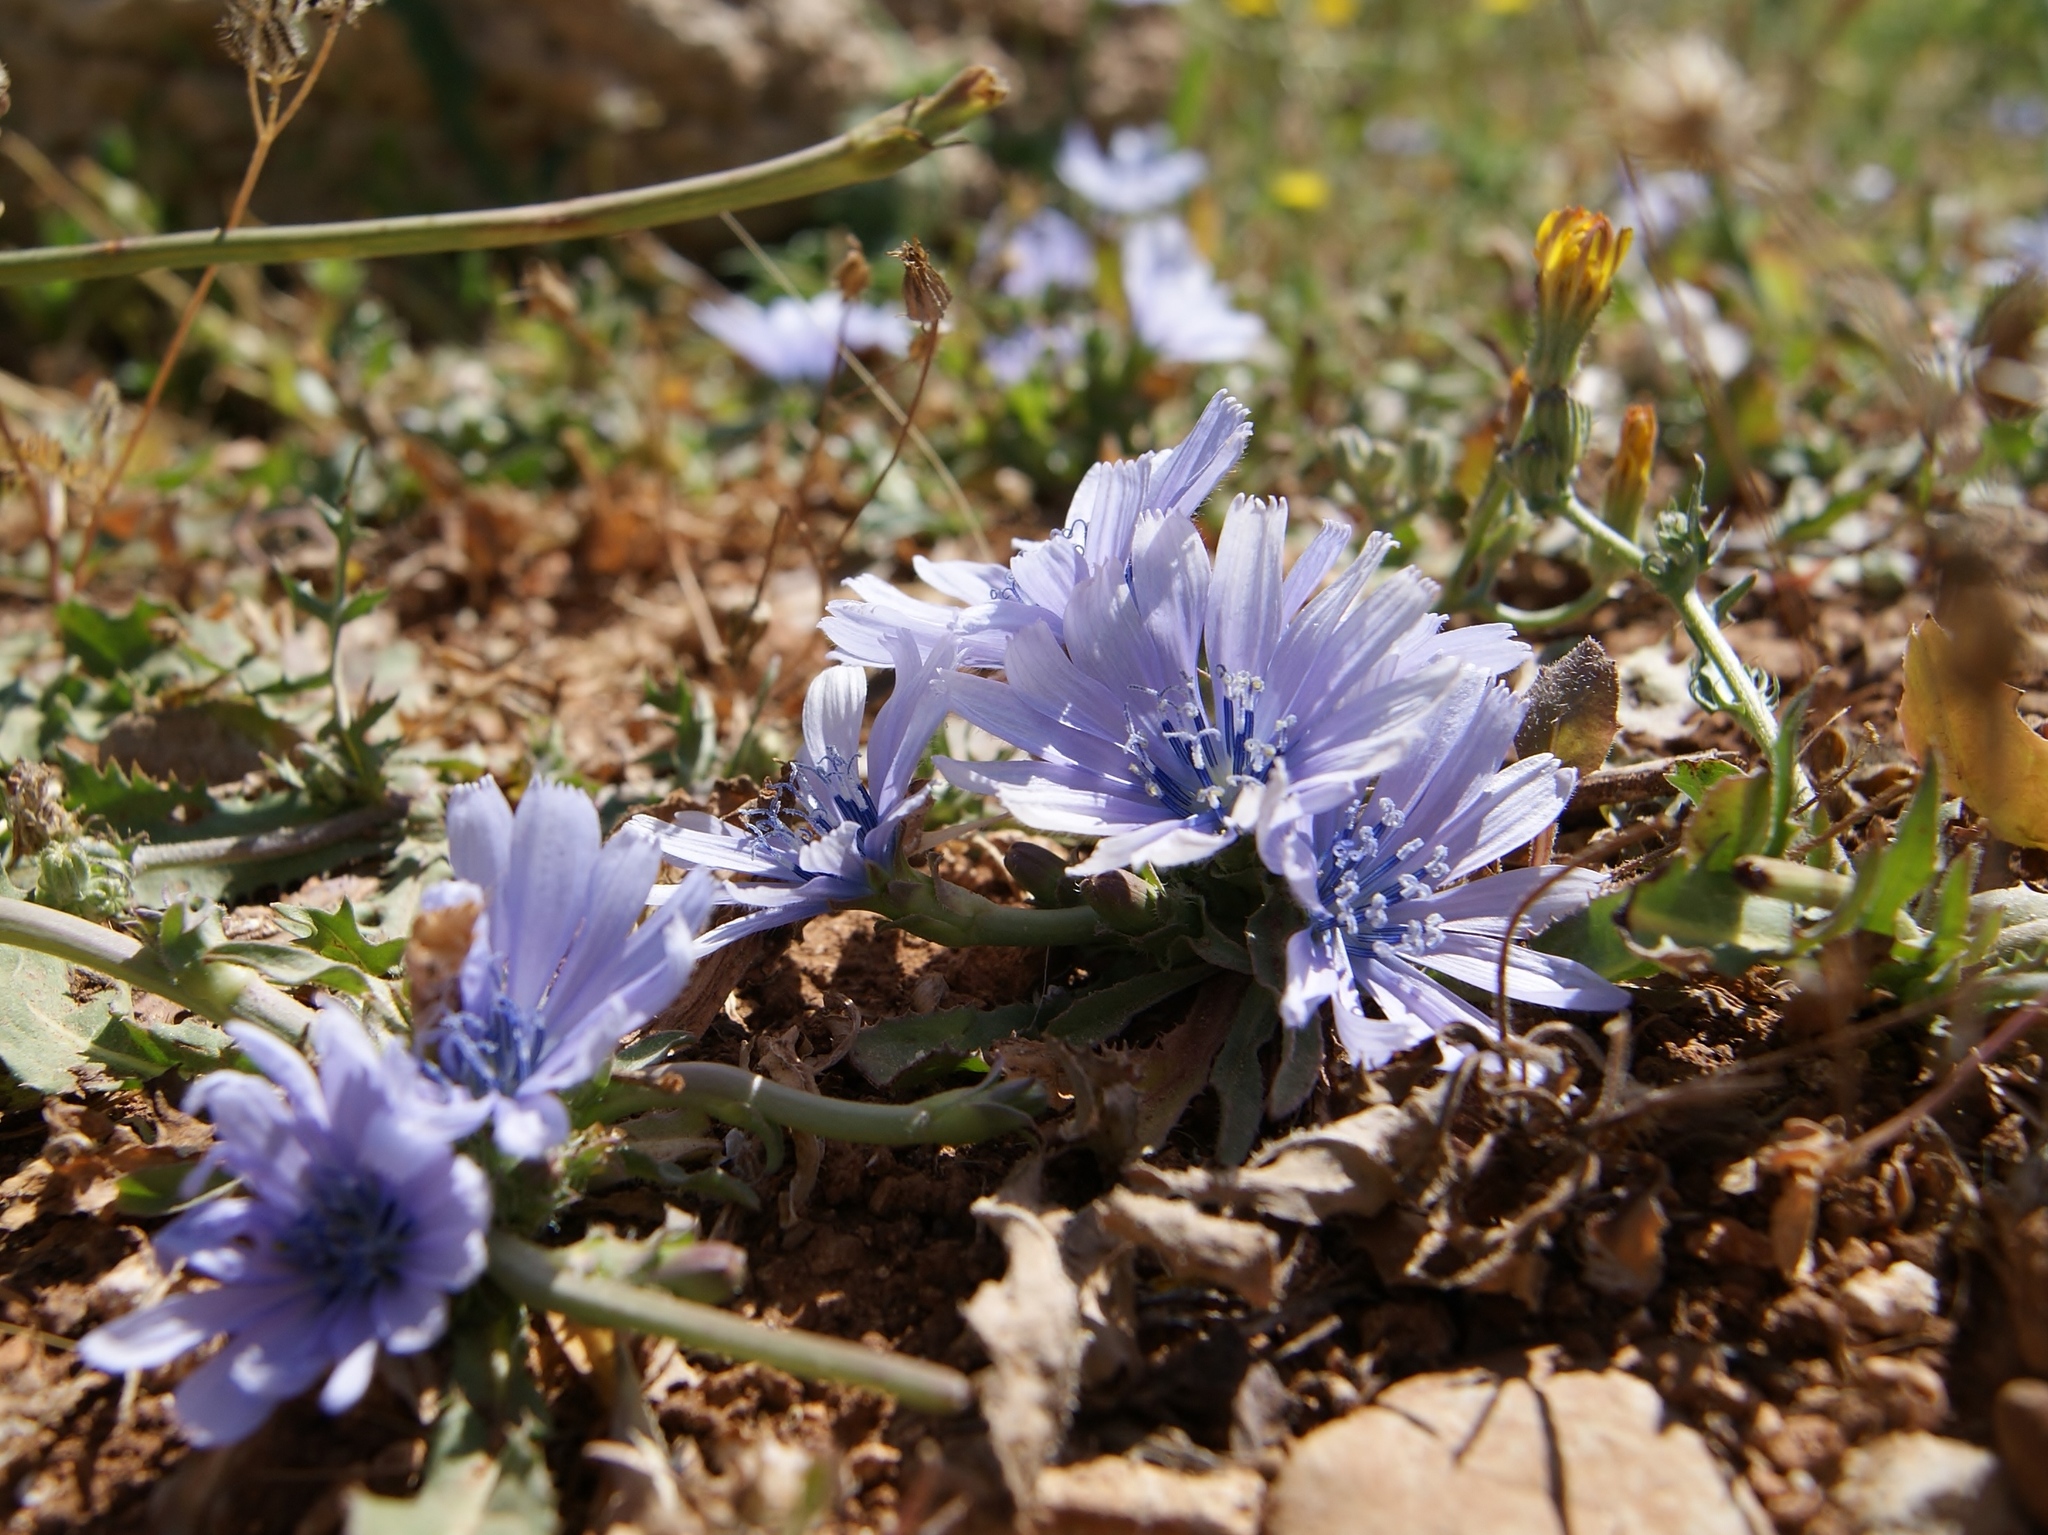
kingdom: Plantae
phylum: Tracheophyta
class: Magnoliopsida
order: Asterales
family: Asteraceae
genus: Lactuca
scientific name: Lactuca tuberosa
